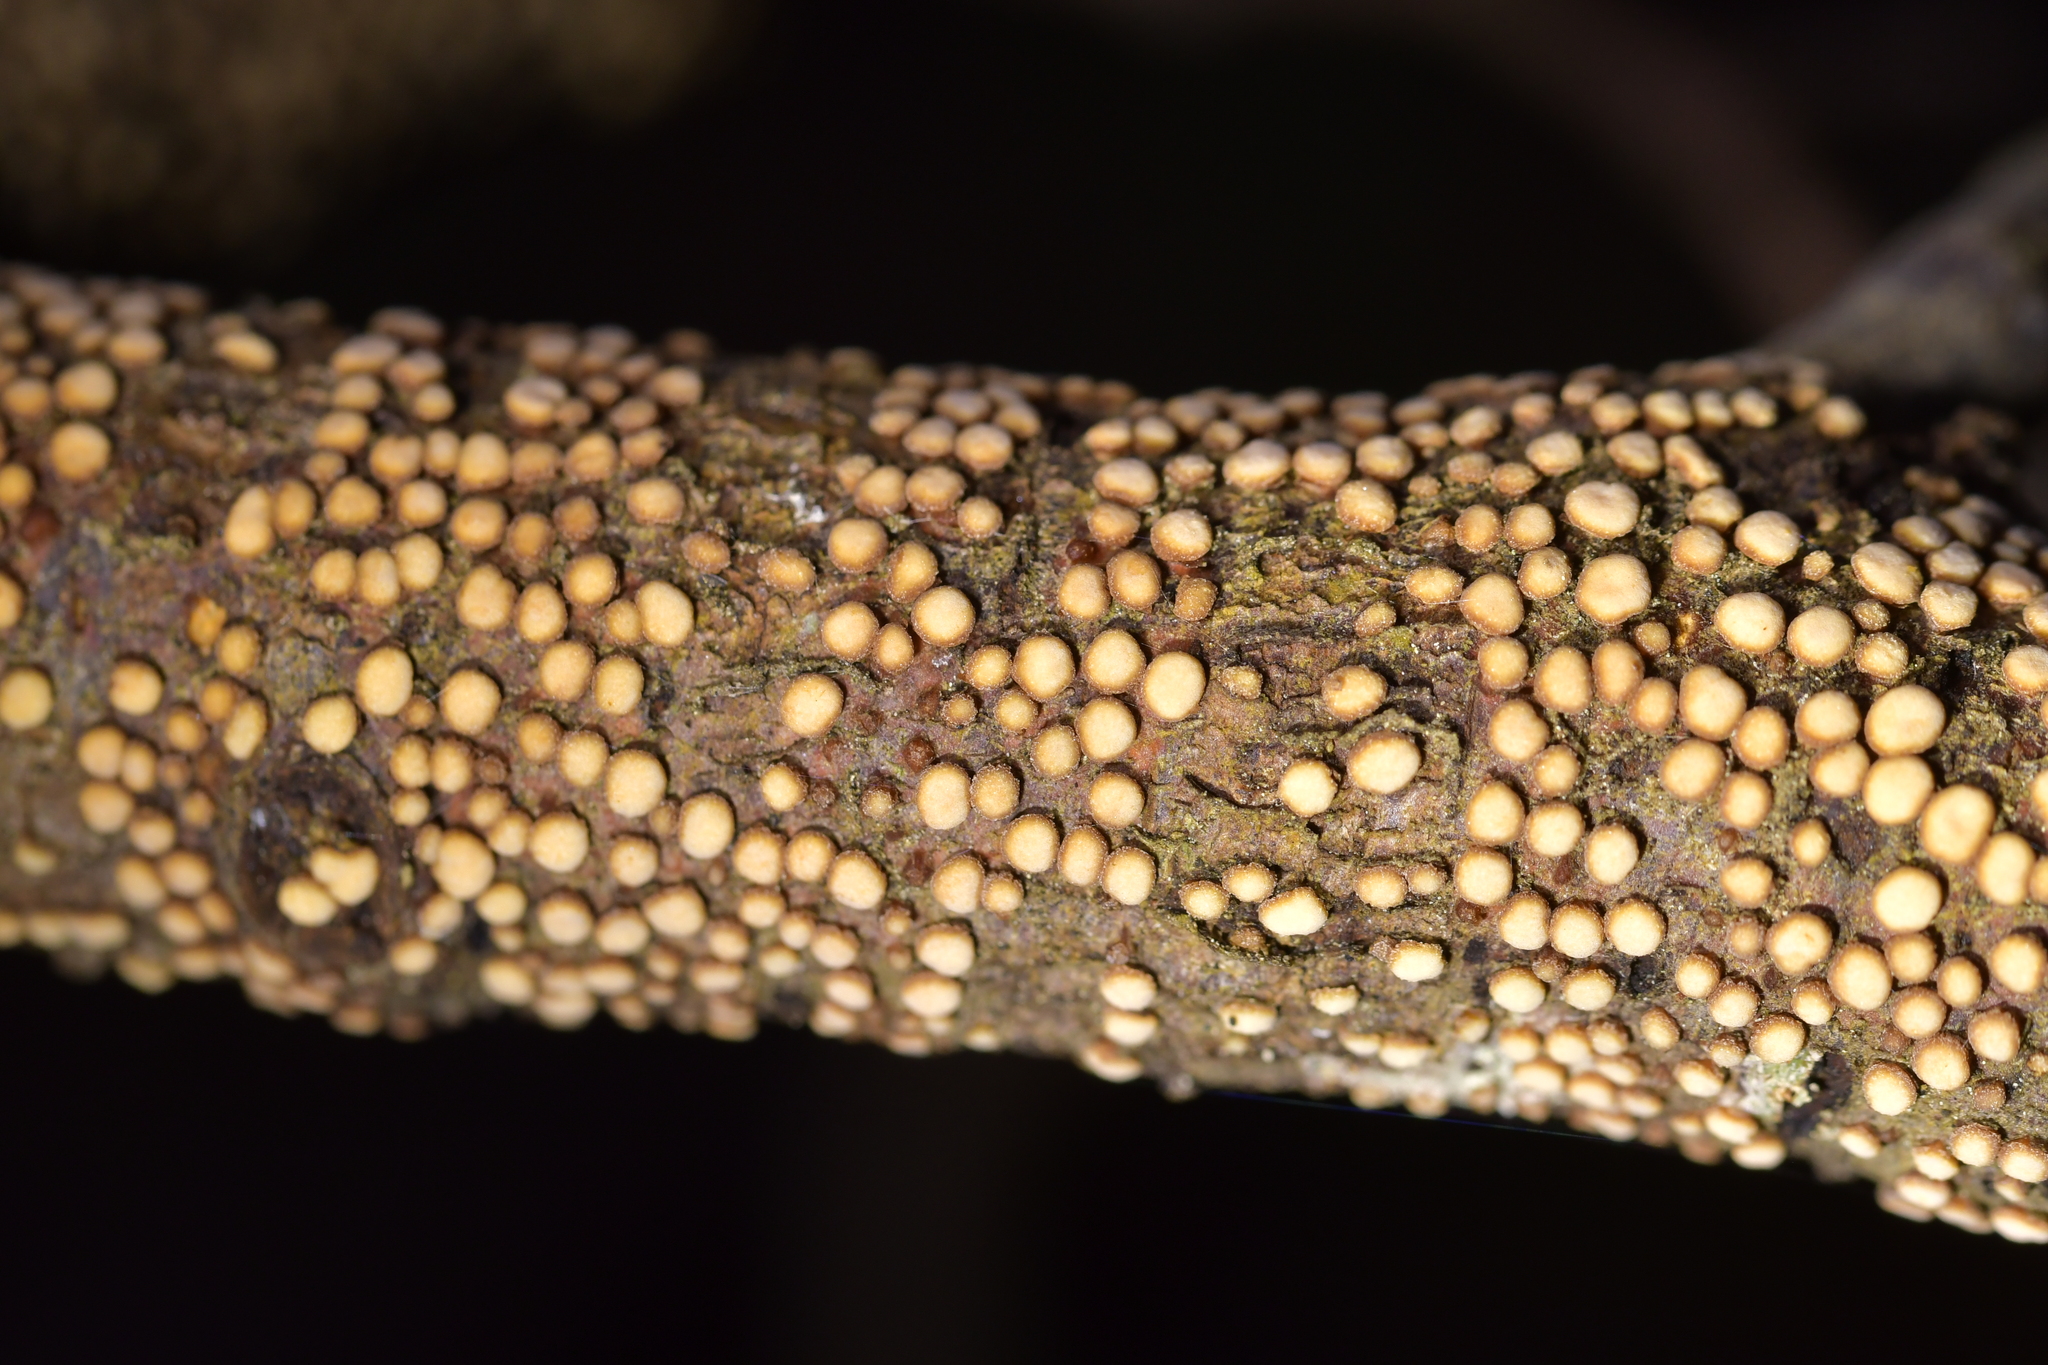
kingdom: Fungi
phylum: Basidiomycota
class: Agaricomycetes
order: Russulales
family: Stereaceae
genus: Aleurodiscus
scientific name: Aleurodiscus berggrenii
